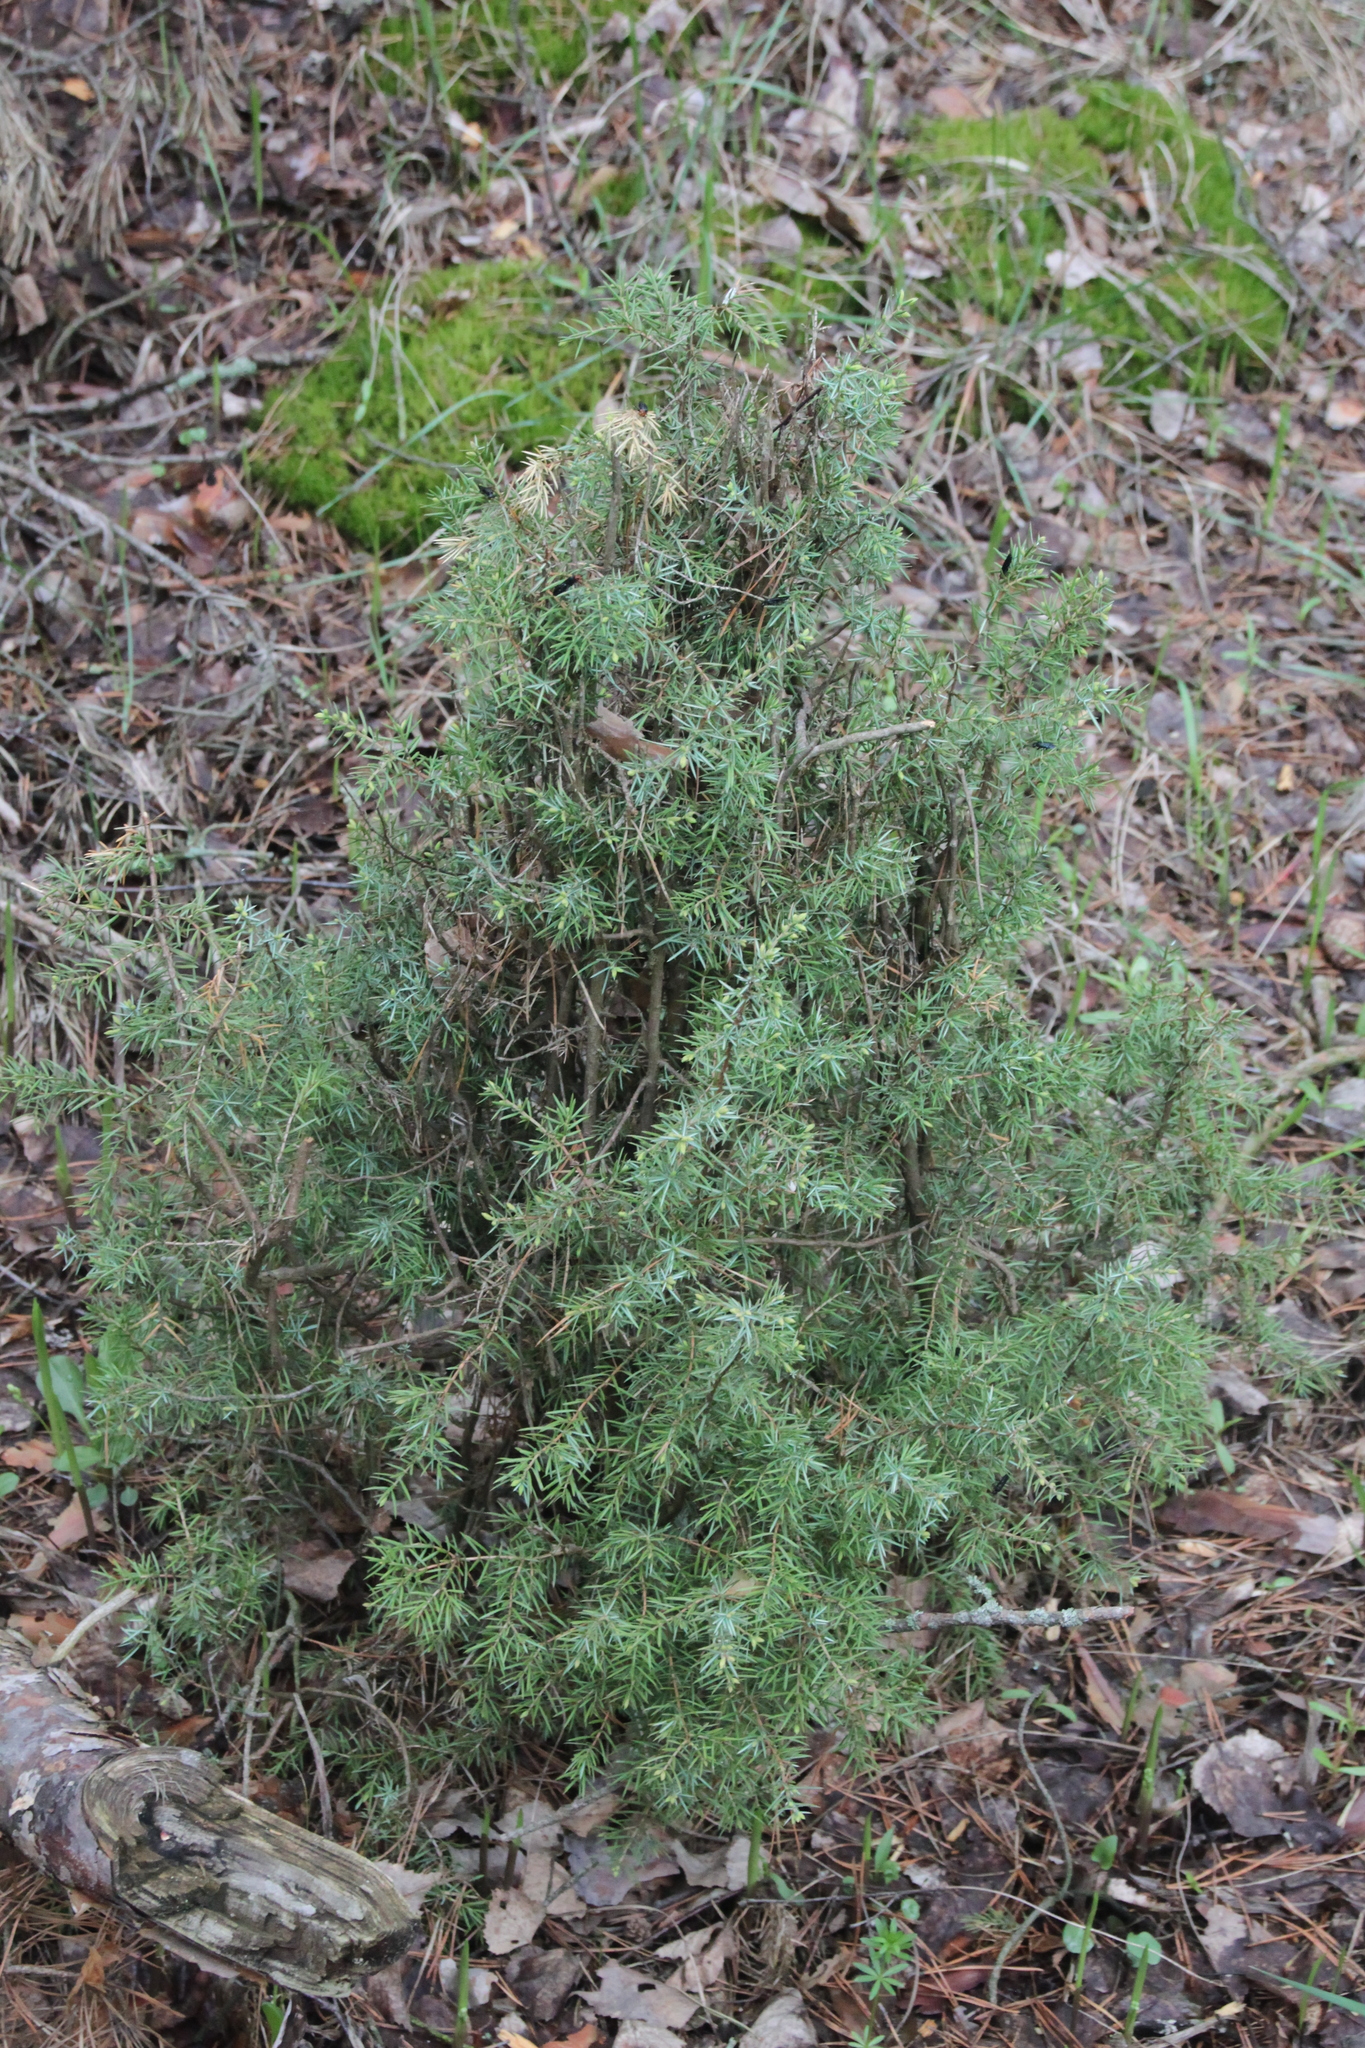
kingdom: Plantae
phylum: Tracheophyta
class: Pinopsida
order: Pinales
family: Cupressaceae
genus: Juniperus
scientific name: Juniperus communis
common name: Common juniper
